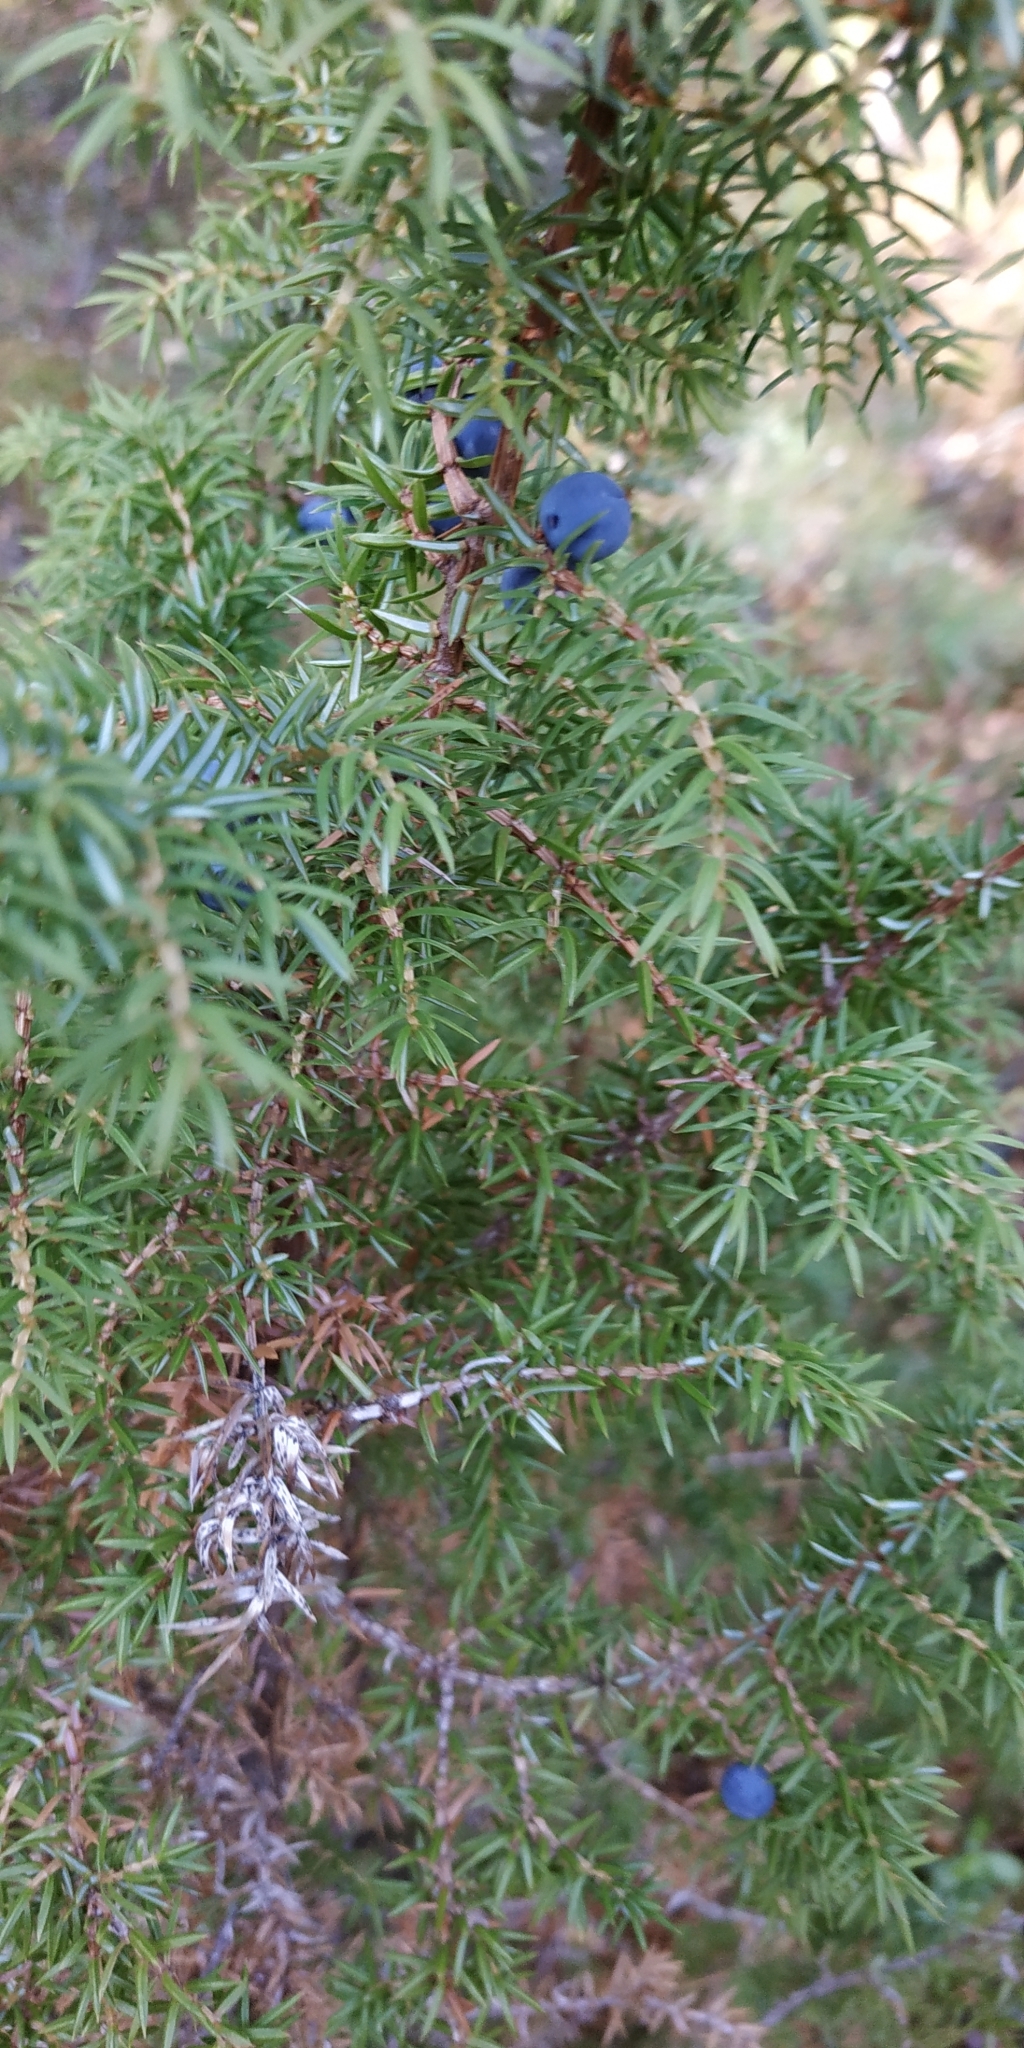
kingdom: Plantae
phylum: Tracheophyta
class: Pinopsida
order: Pinales
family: Cupressaceae
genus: Juniperus
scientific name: Juniperus communis
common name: Common juniper
